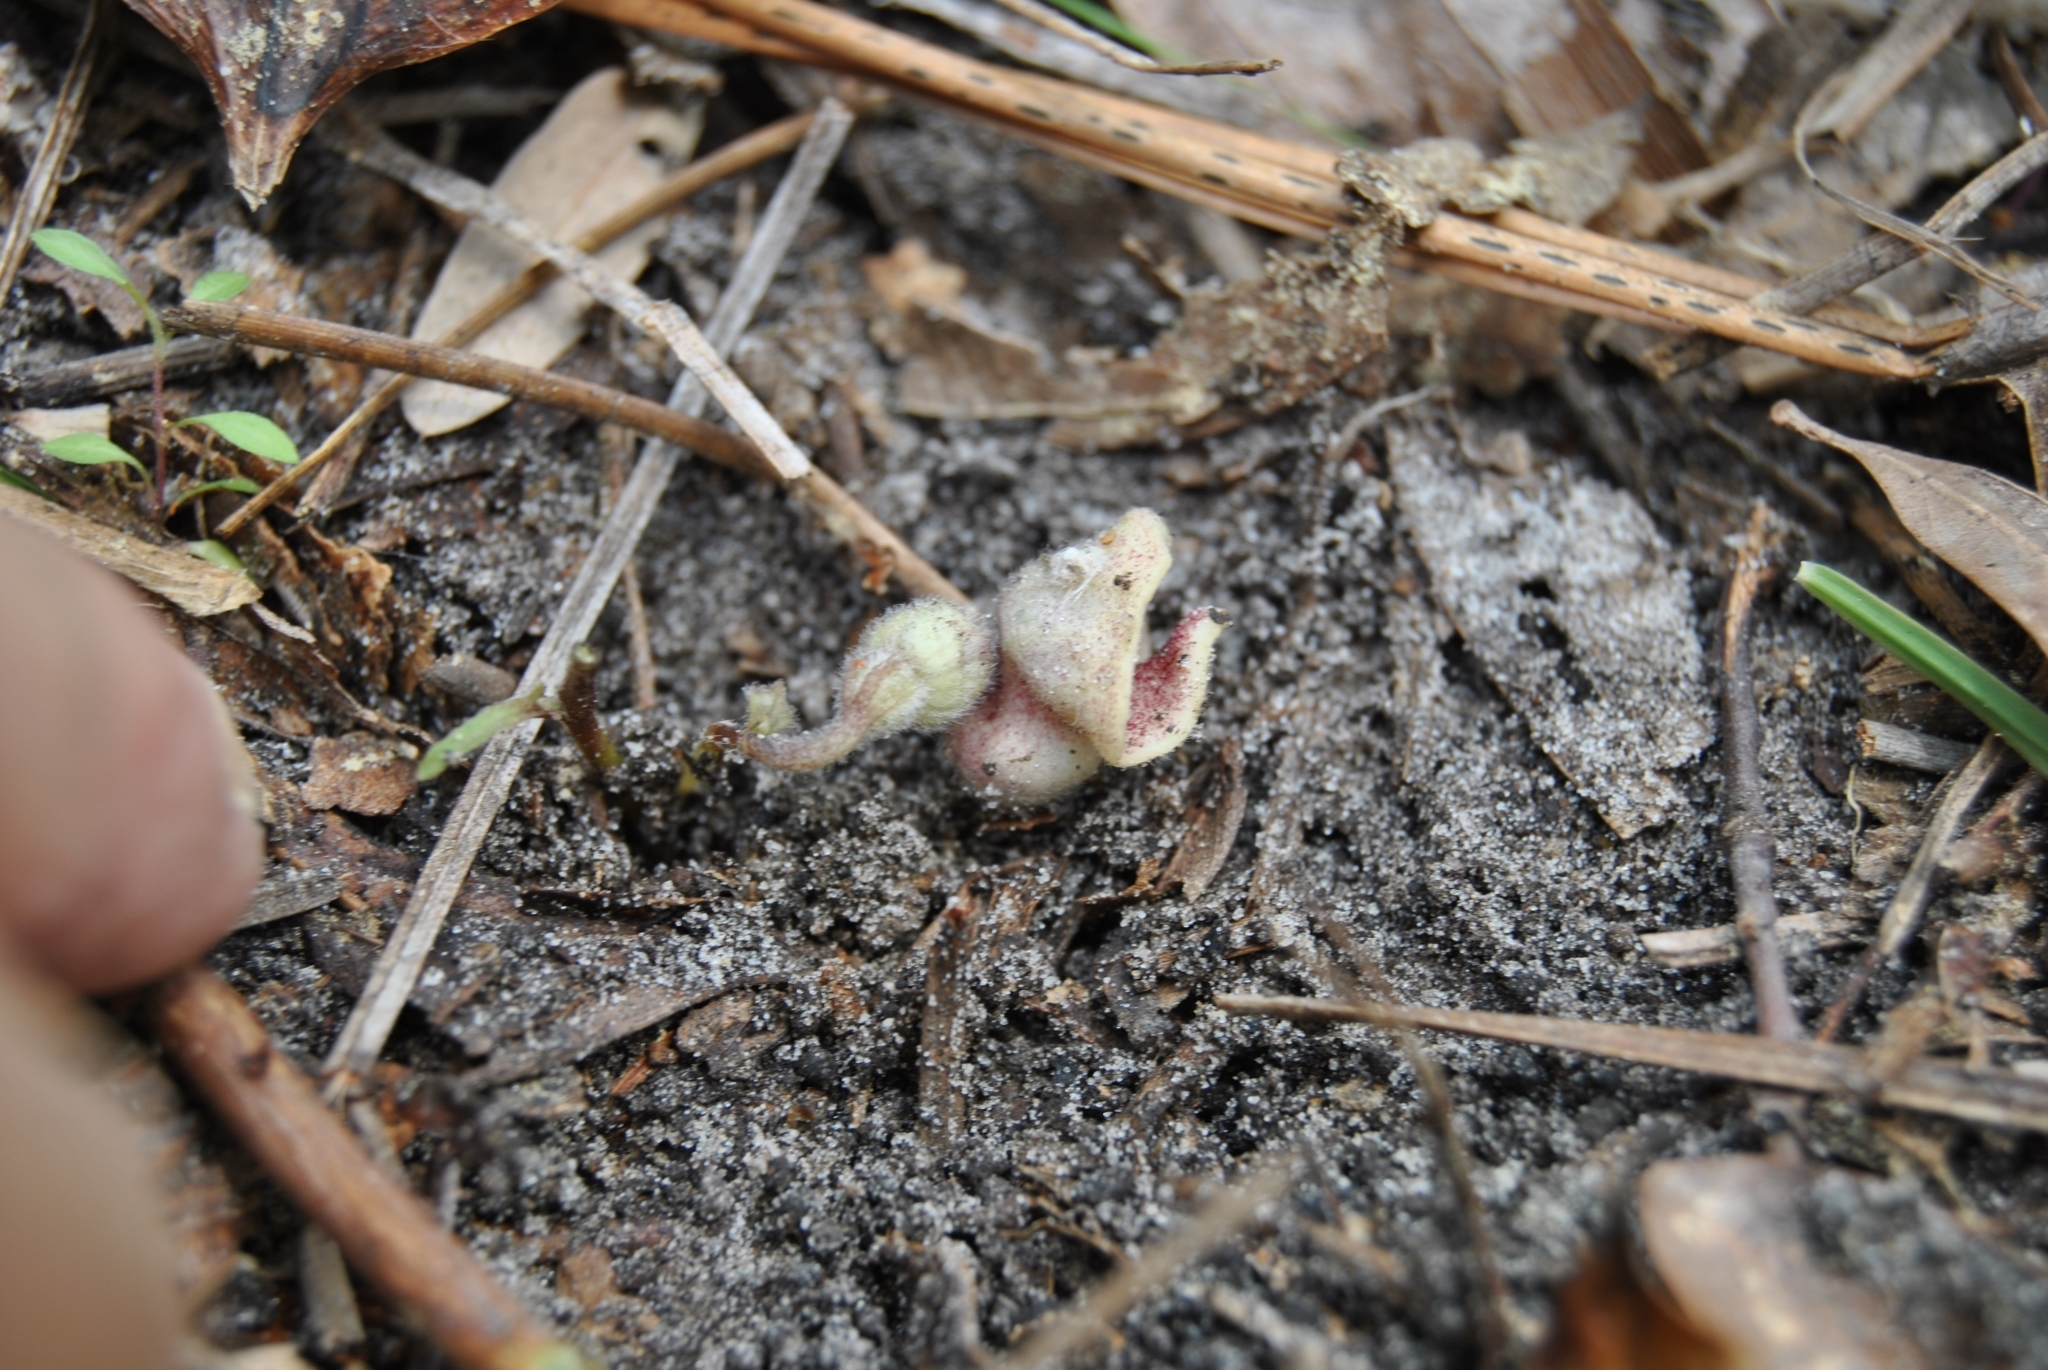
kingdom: Plantae
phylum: Tracheophyta
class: Magnoliopsida
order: Piperales
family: Aristolochiaceae
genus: Endodeca
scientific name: Endodeca serpentaria
